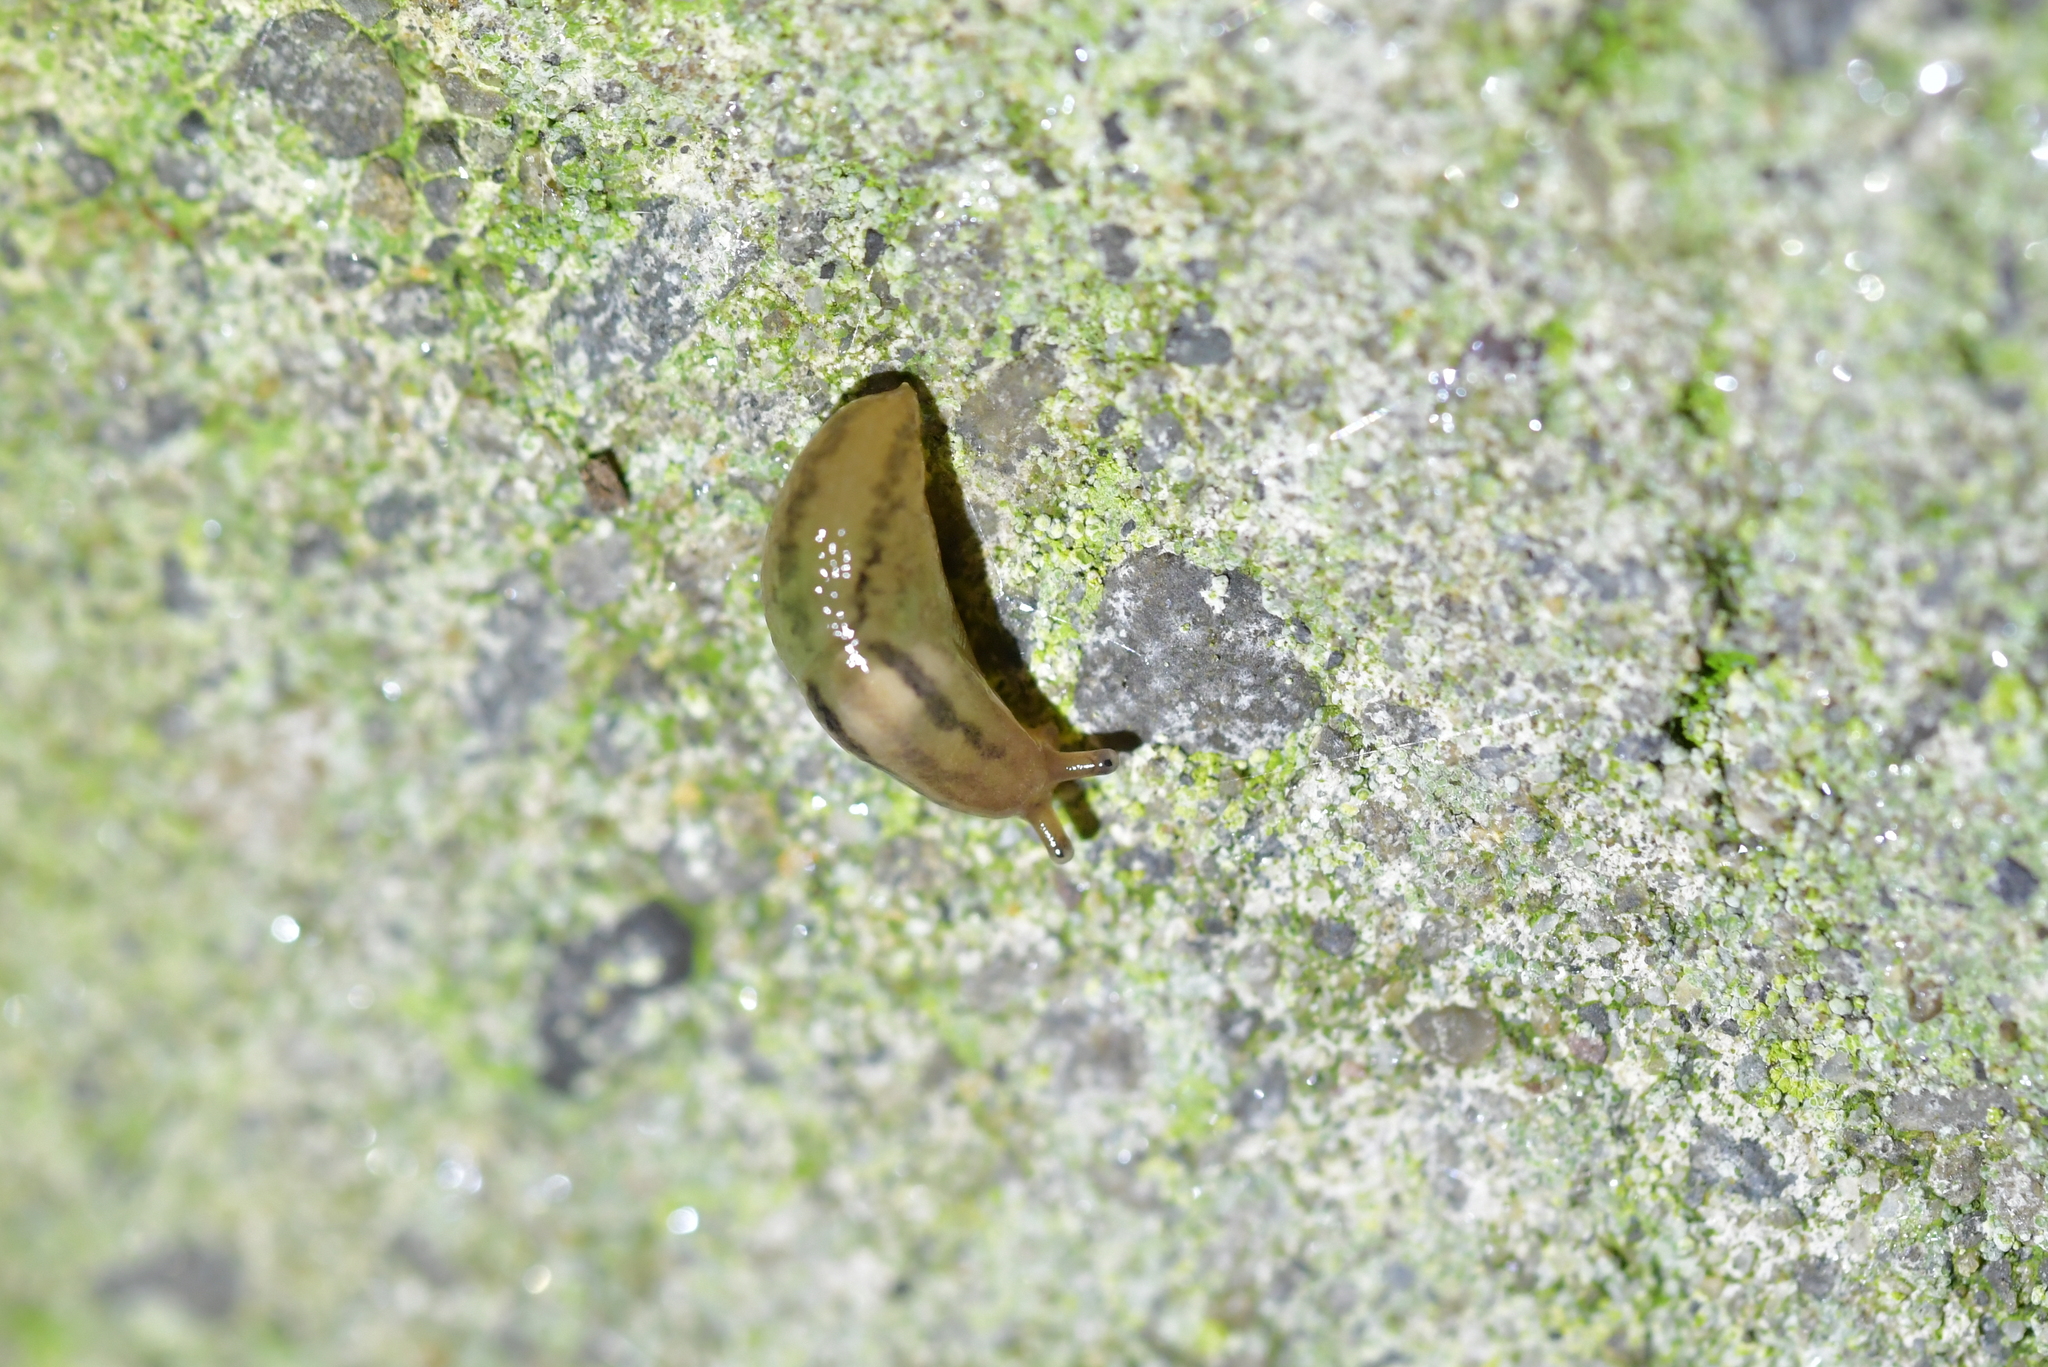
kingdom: Animalia
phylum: Mollusca
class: Gastropoda
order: Stylommatophora
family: Limacidae
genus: Ambigolimax
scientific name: Ambigolimax
